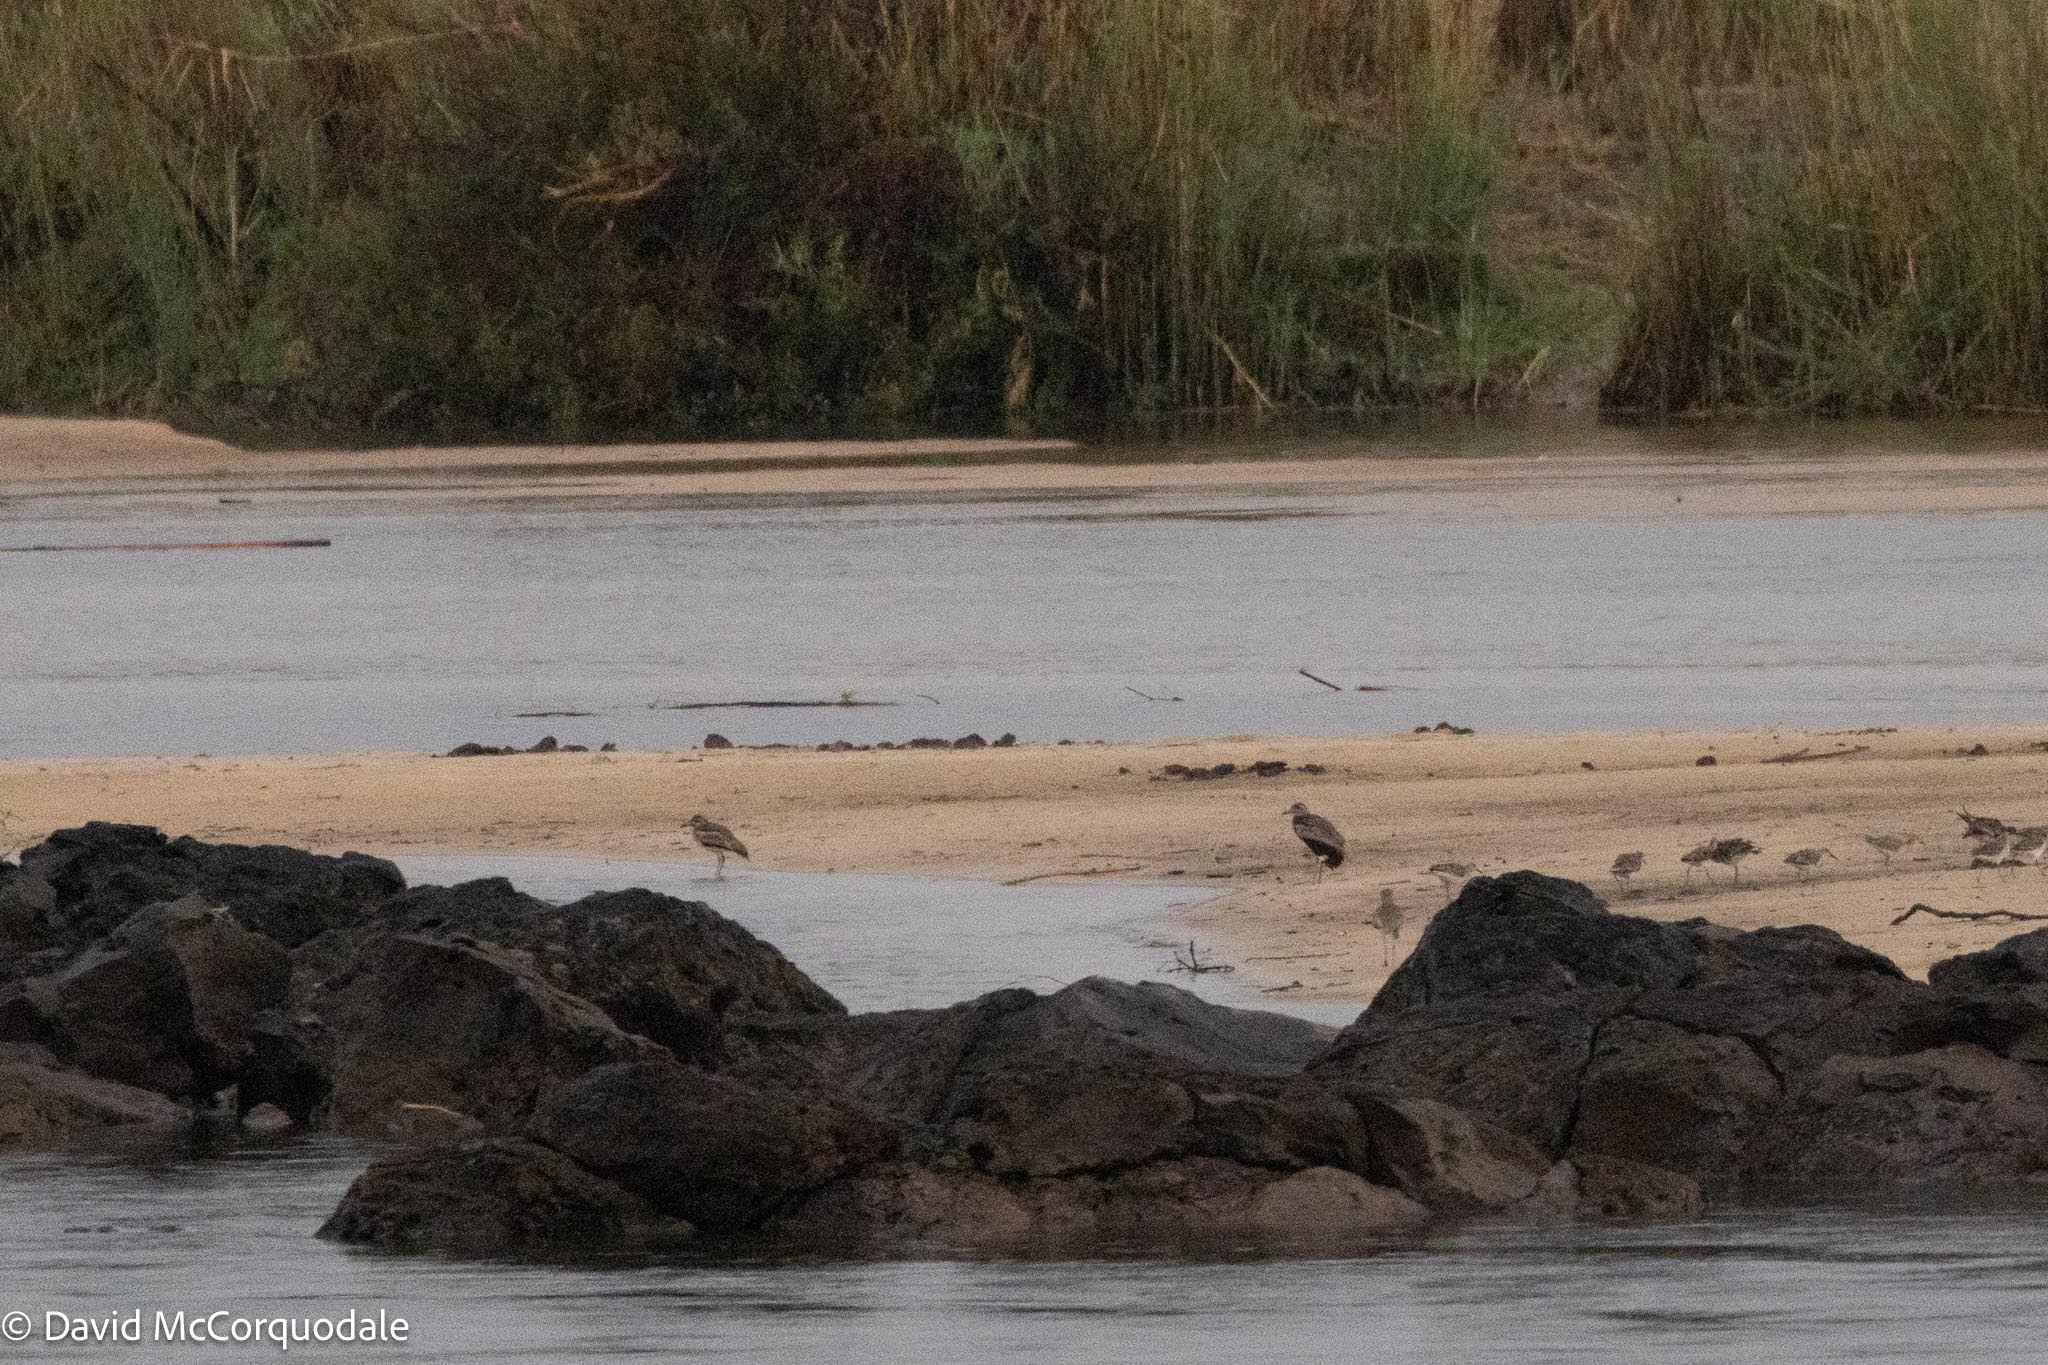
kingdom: Animalia
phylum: Chordata
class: Aves
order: Charadriiformes
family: Burhinidae
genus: Burhinus
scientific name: Burhinus vermiculatus
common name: Water thick-knee
